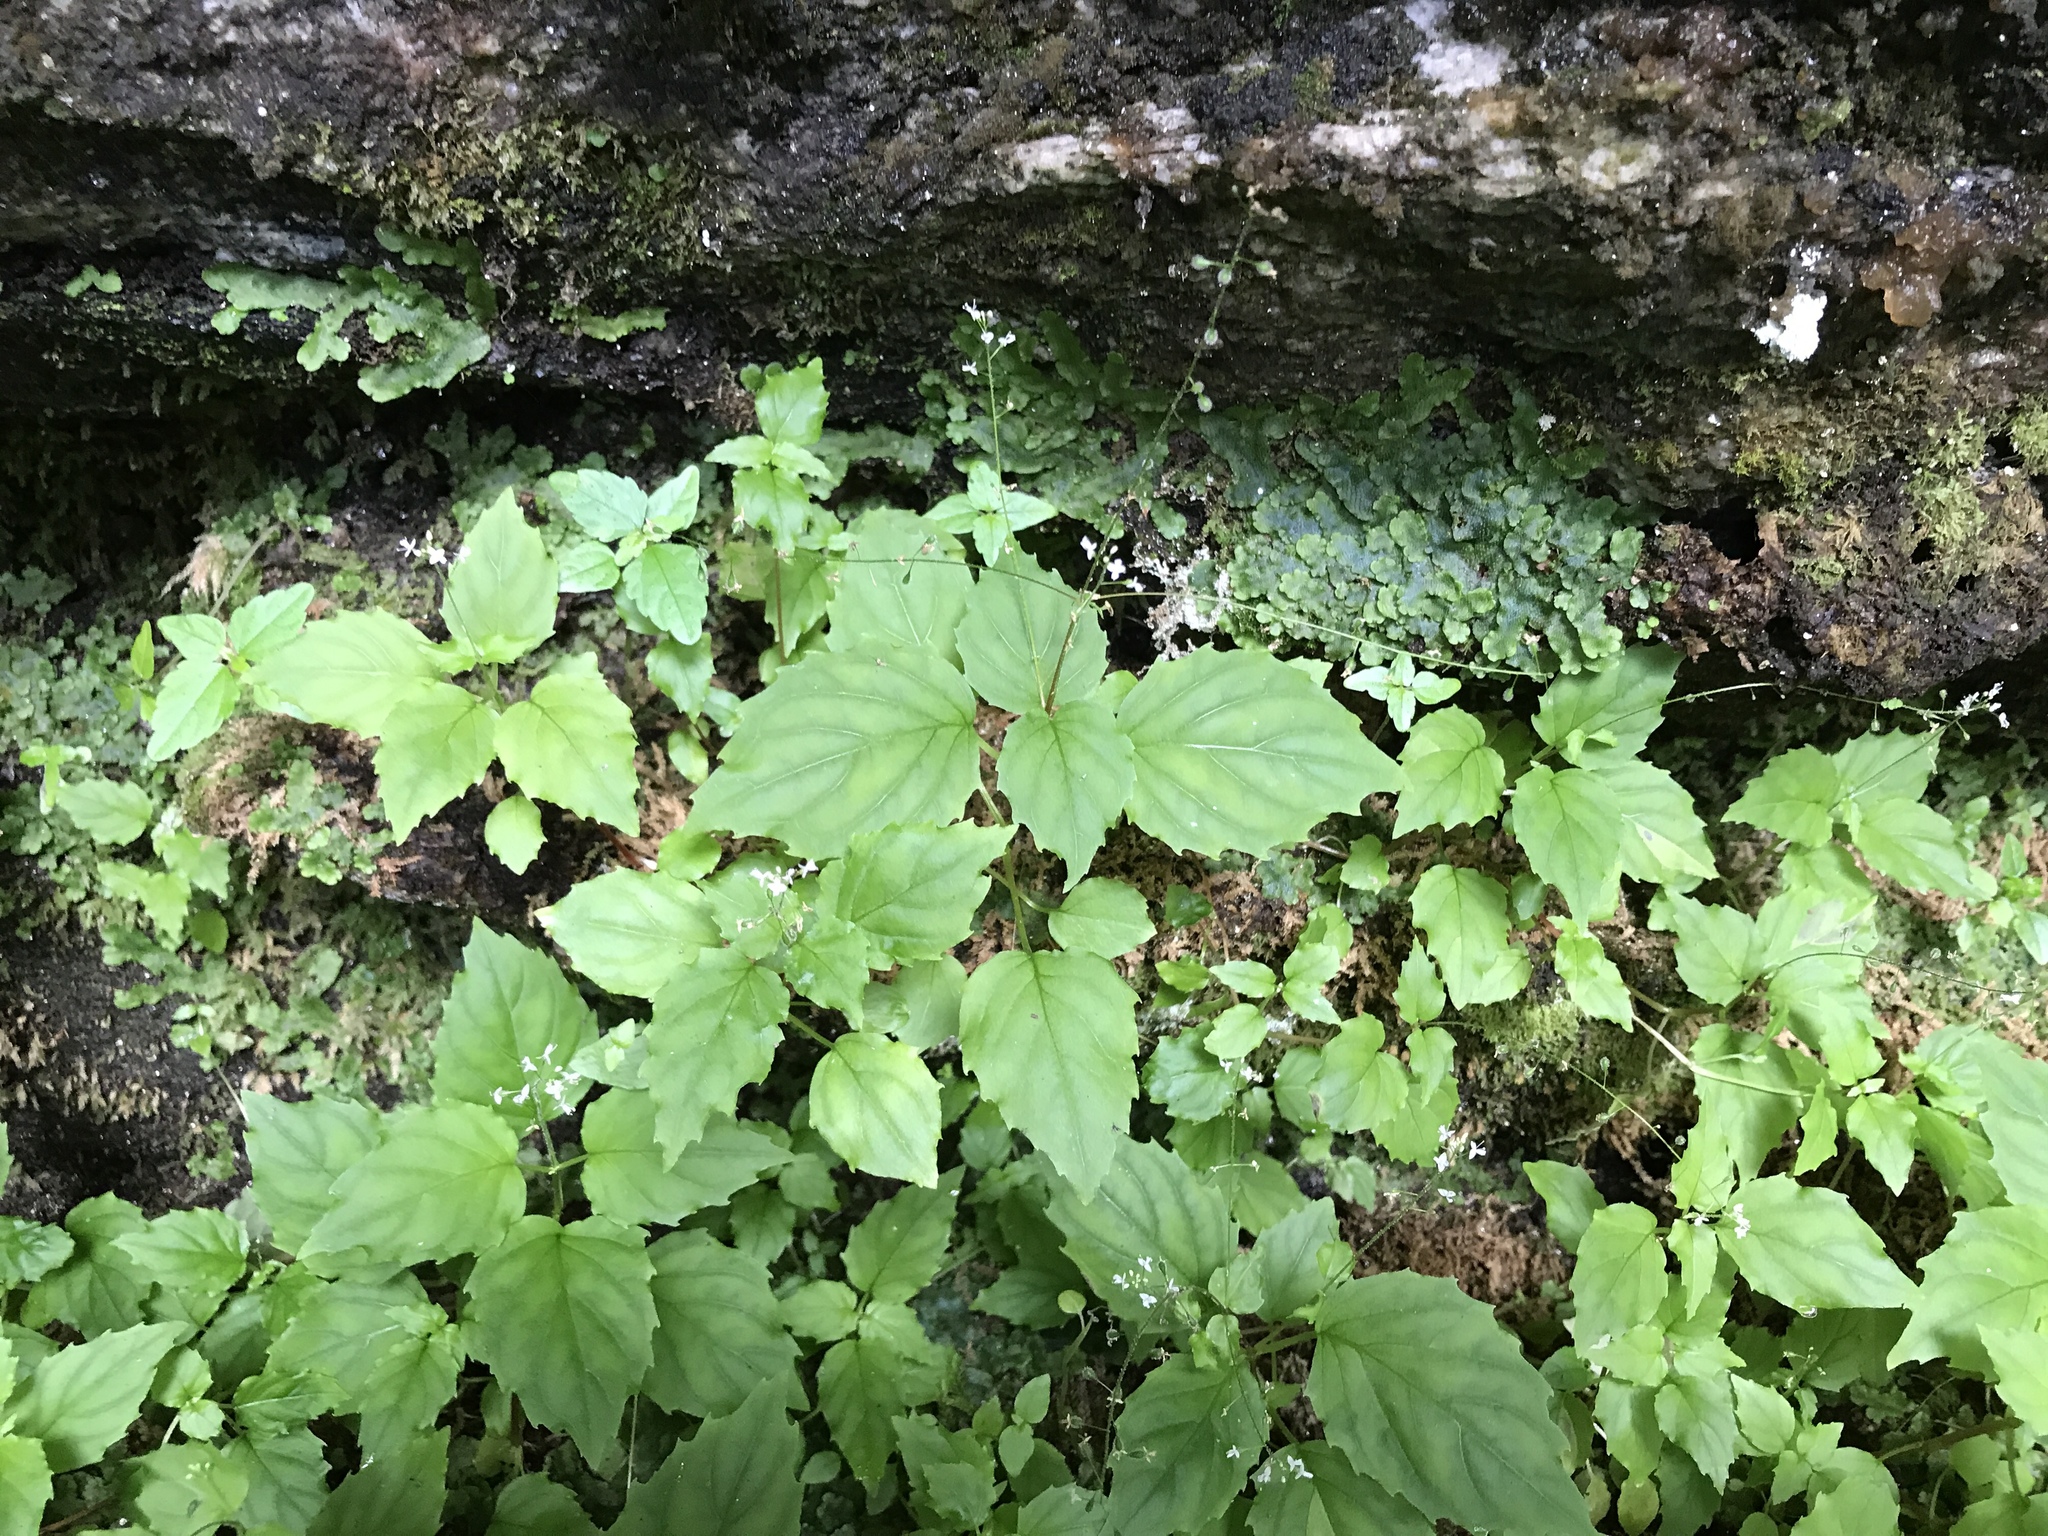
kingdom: Plantae
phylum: Tracheophyta
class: Magnoliopsida
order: Myrtales
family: Onagraceae
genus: Circaea
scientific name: Circaea alpina
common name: Alpine enchanter's-nightshade
